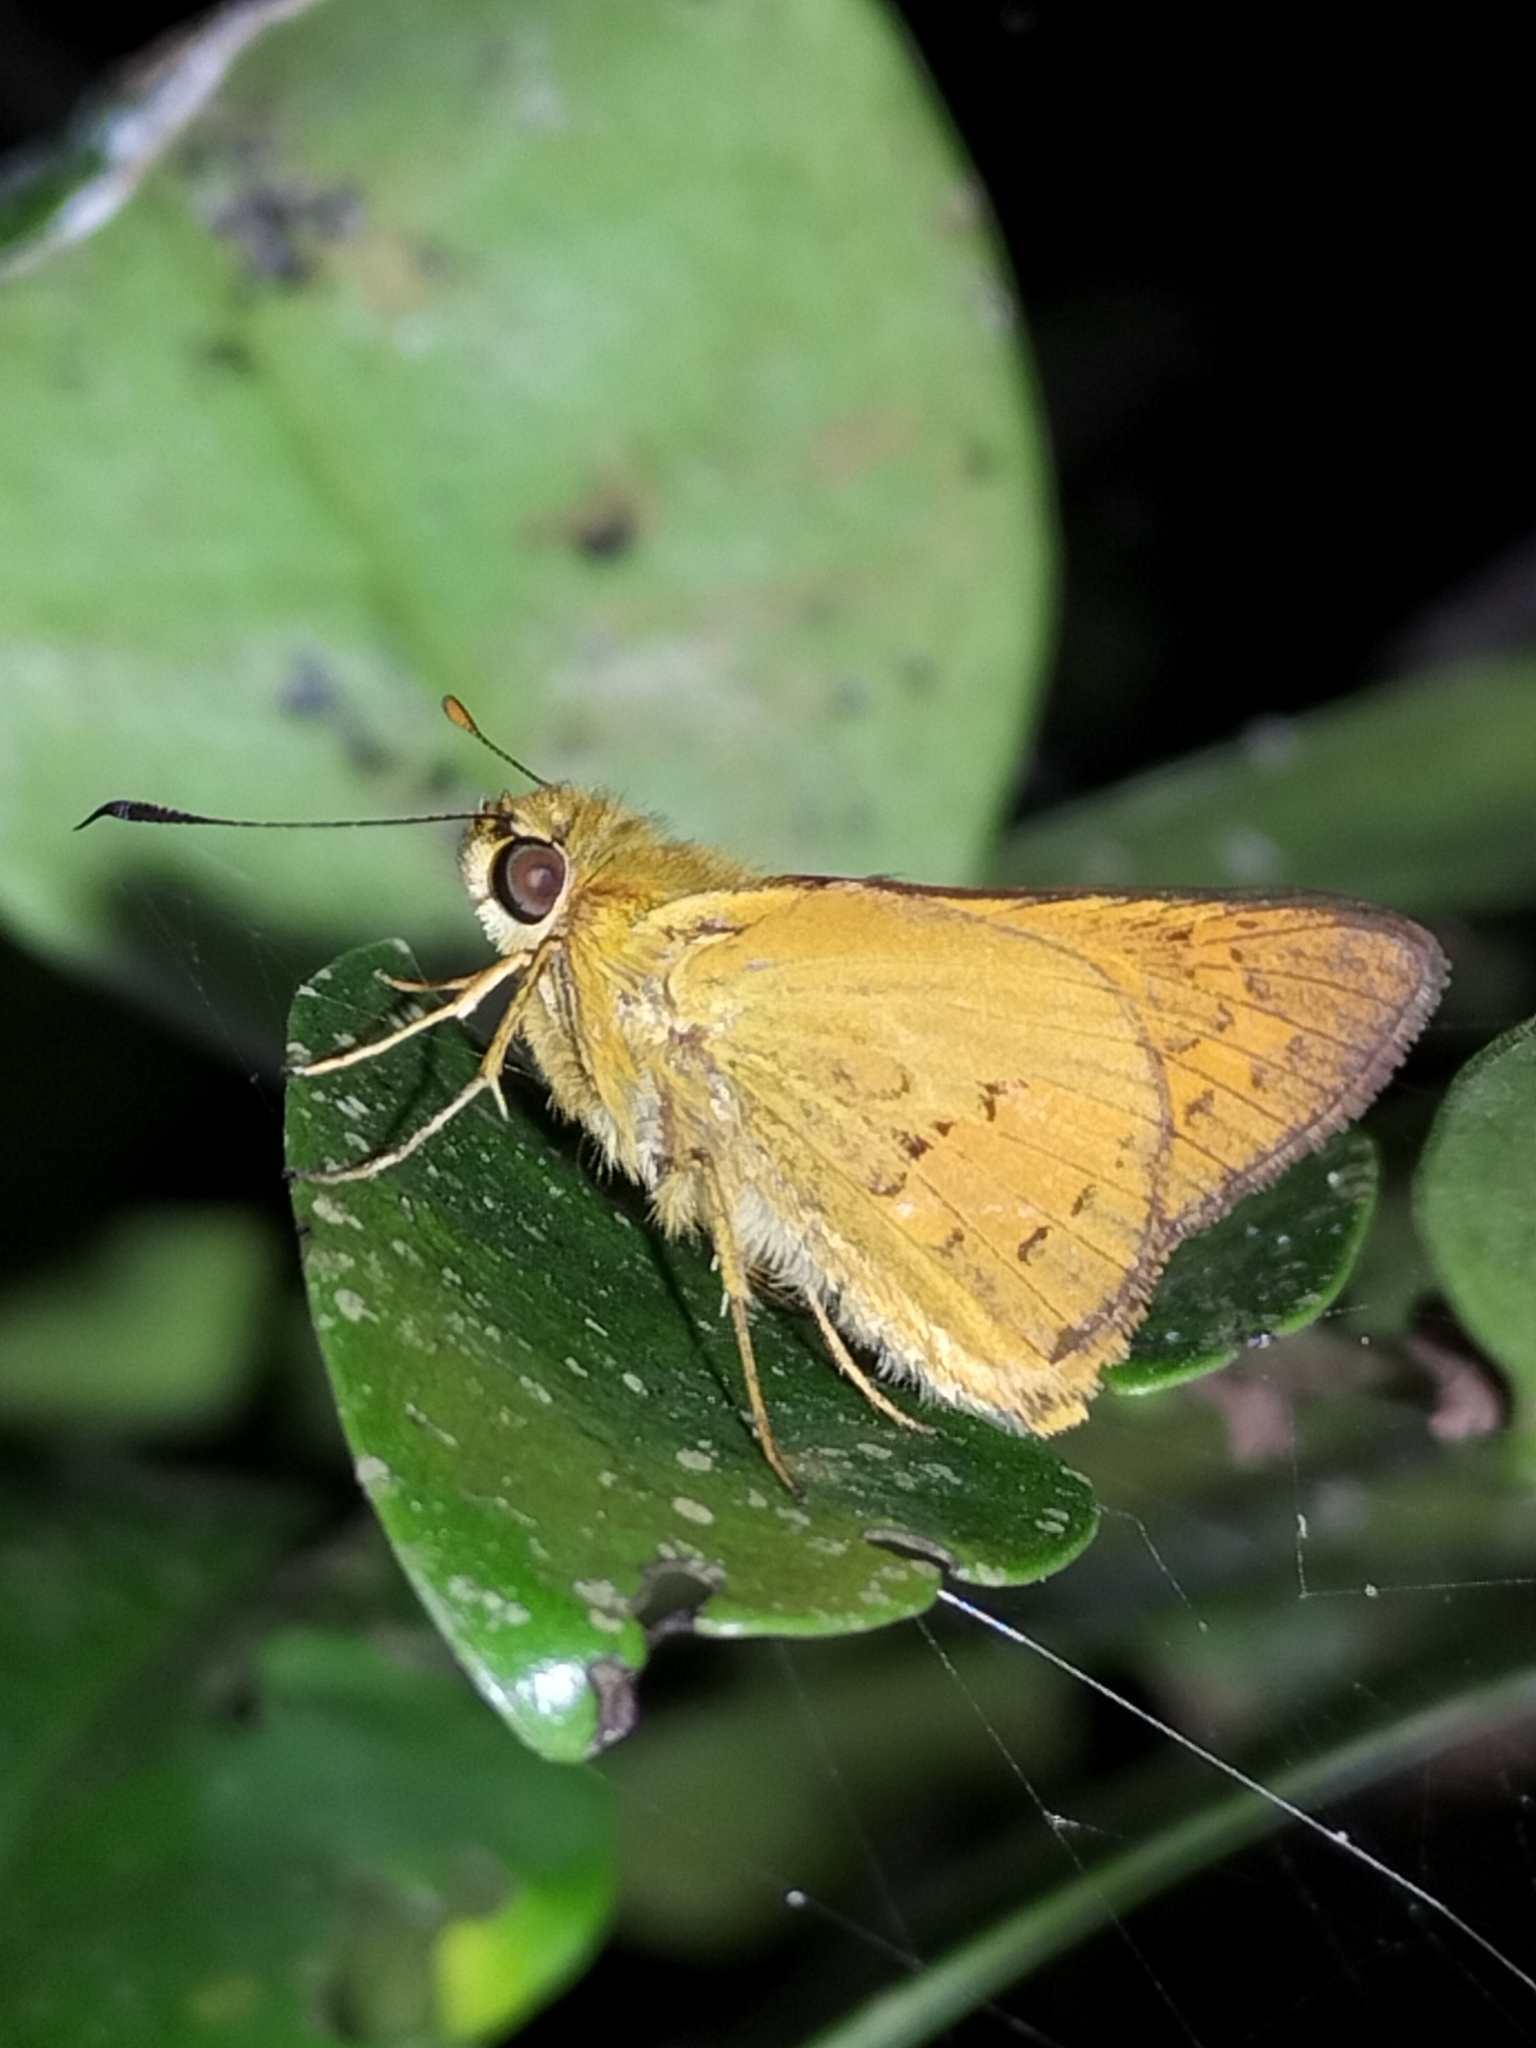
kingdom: Animalia
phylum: Arthropoda
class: Insecta
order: Lepidoptera
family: Hesperiidae
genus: Telicota
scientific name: Telicota paceka
